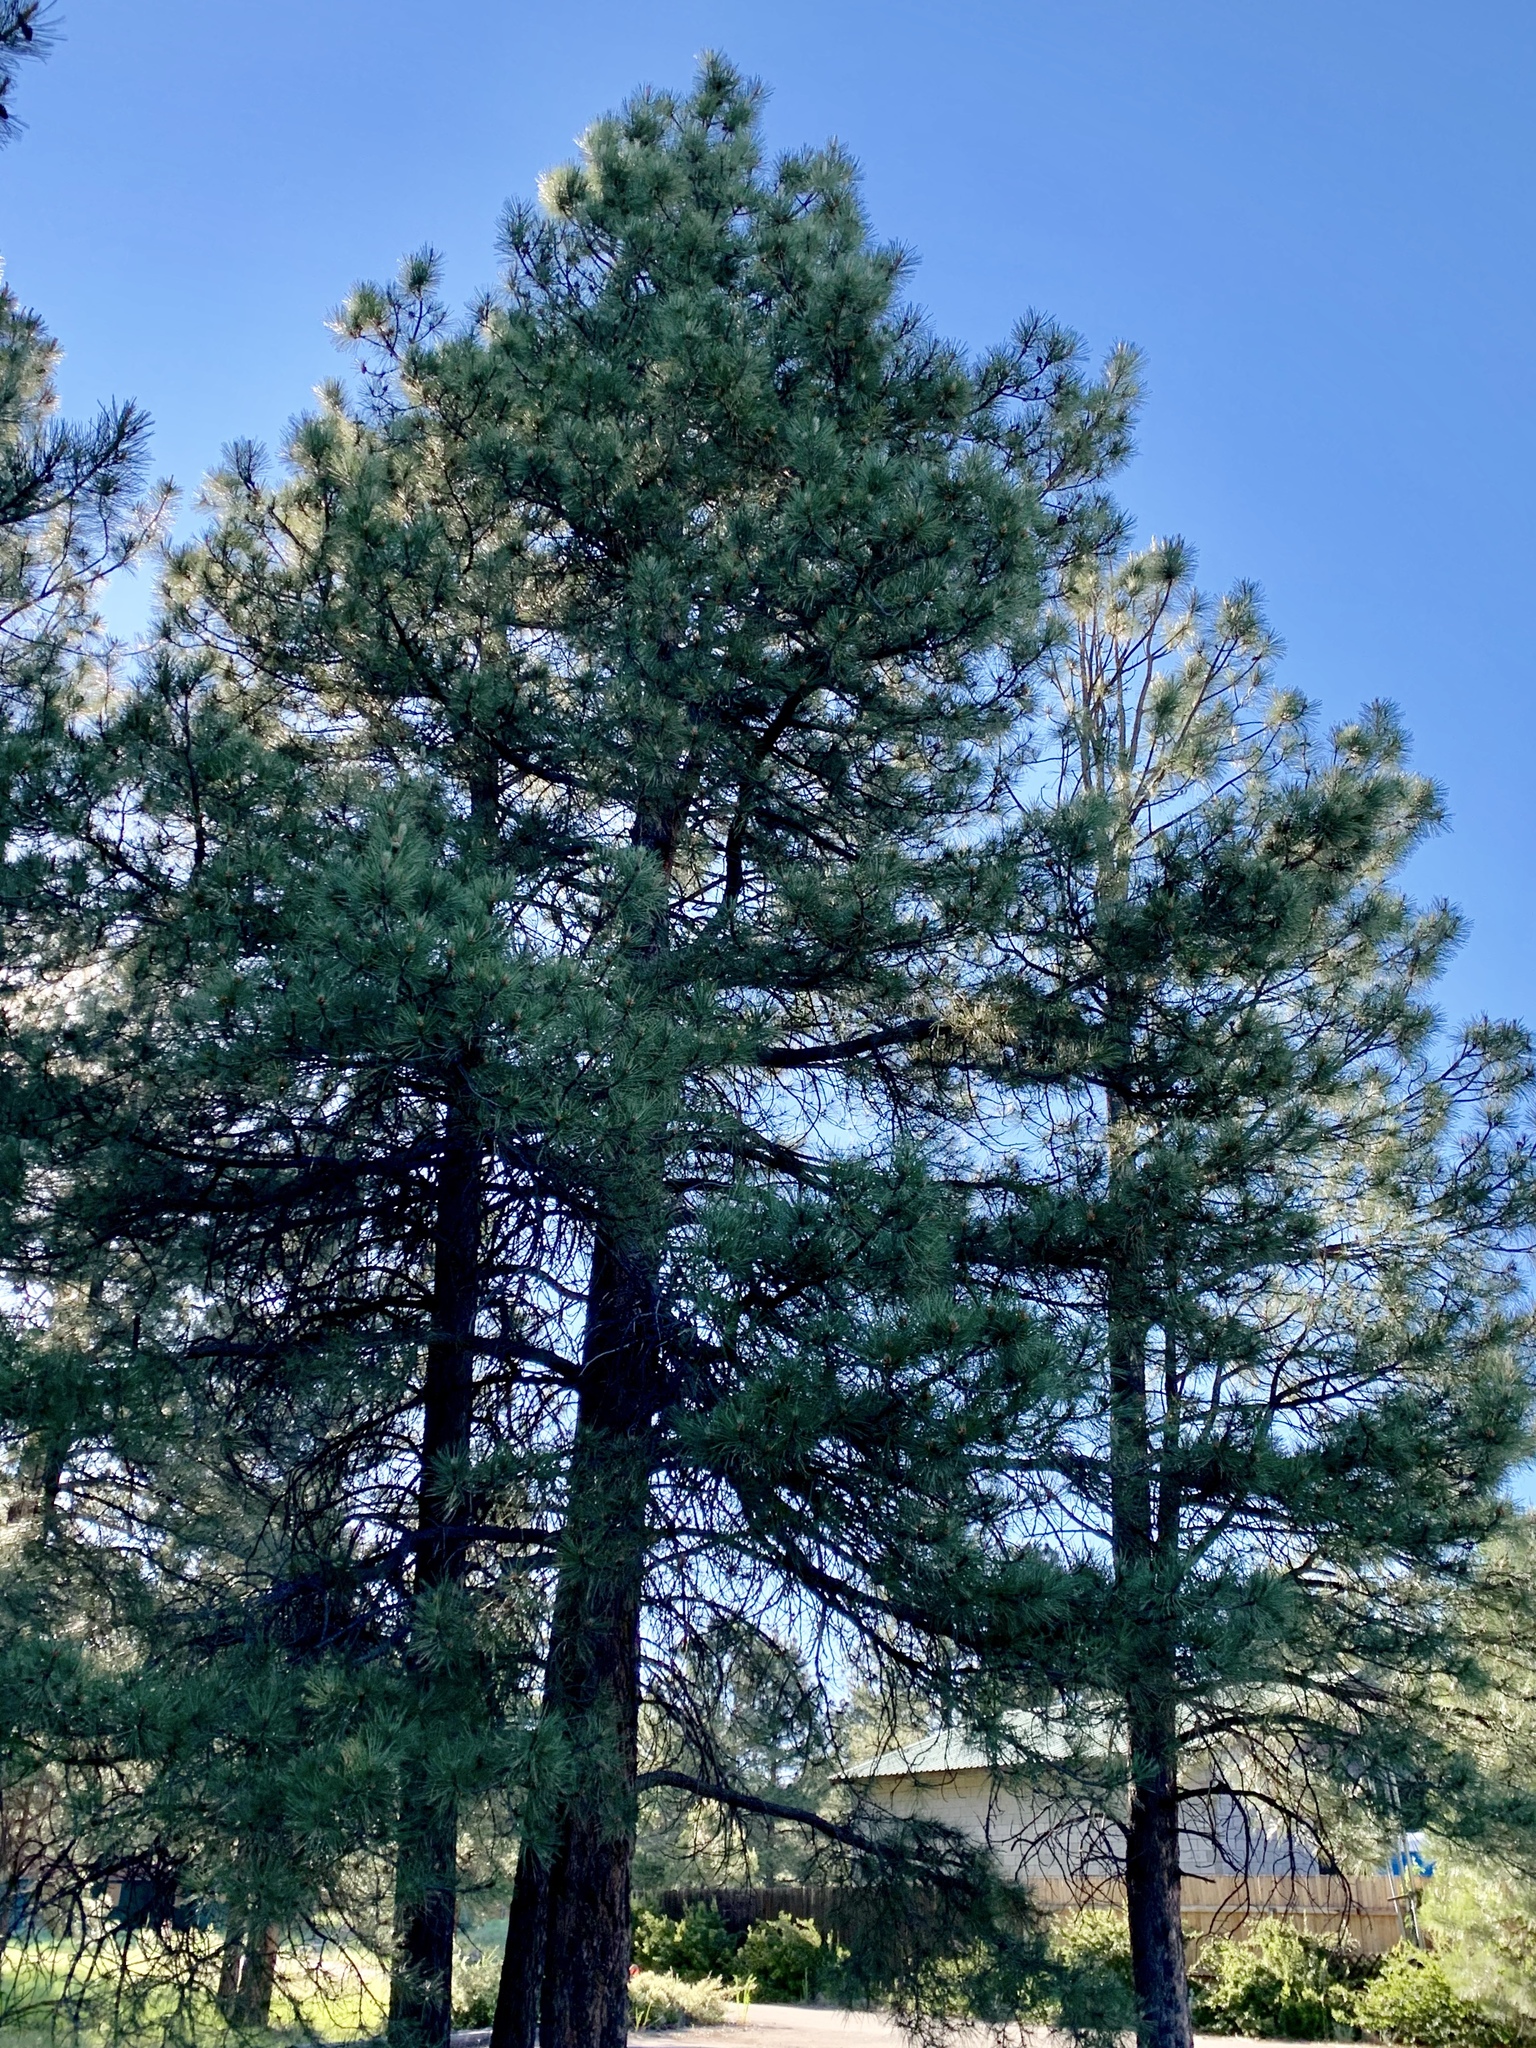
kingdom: Plantae
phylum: Tracheophyta
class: Pinopsida
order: Pinales
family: Pinaceae
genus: Pinus
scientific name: Pinus ponderosa
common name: Western yellow-pine
